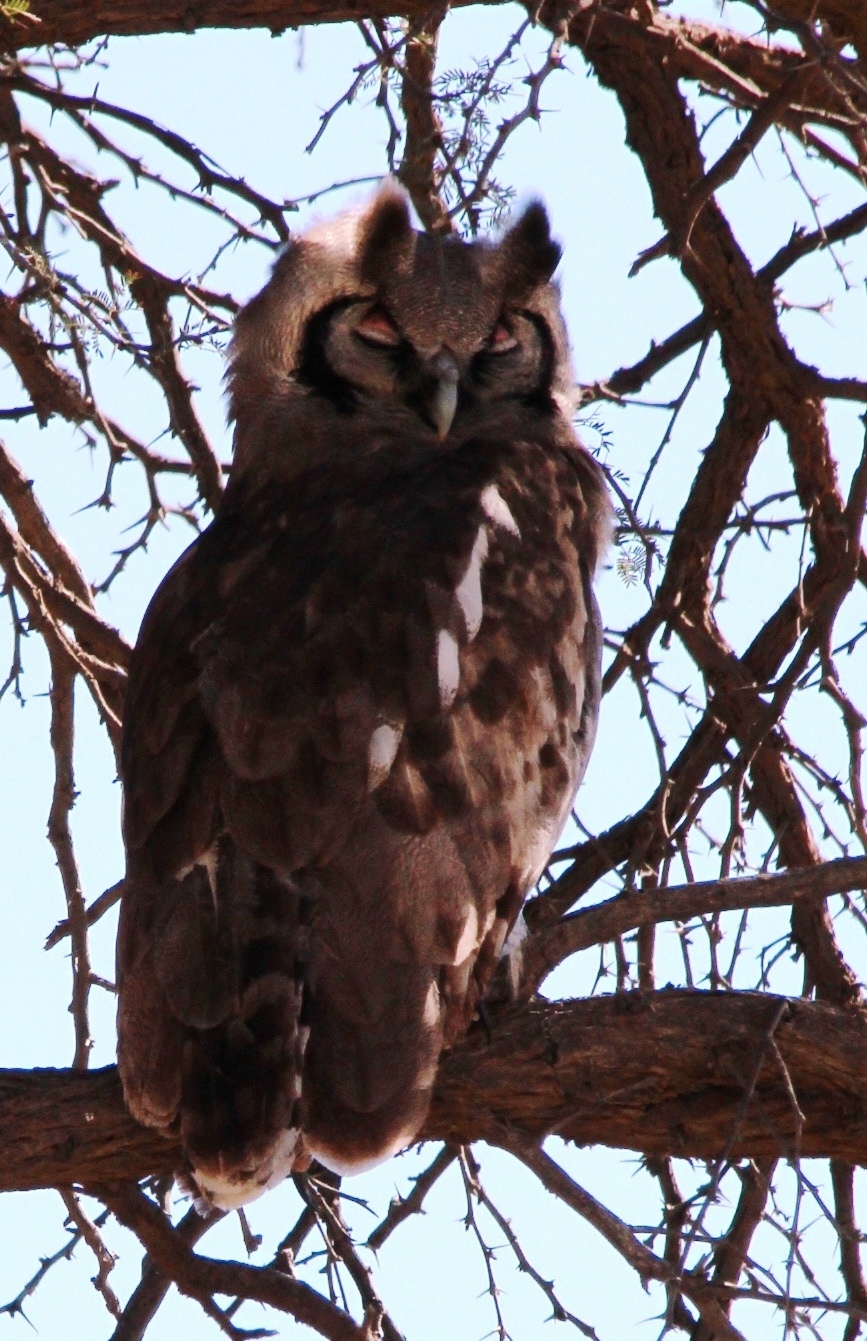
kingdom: Animalia
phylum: Chordata
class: Aves
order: Strigiformes
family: Strigidae
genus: Bubo
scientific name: Bubo lacteus
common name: Verreaux's eagle-owl
